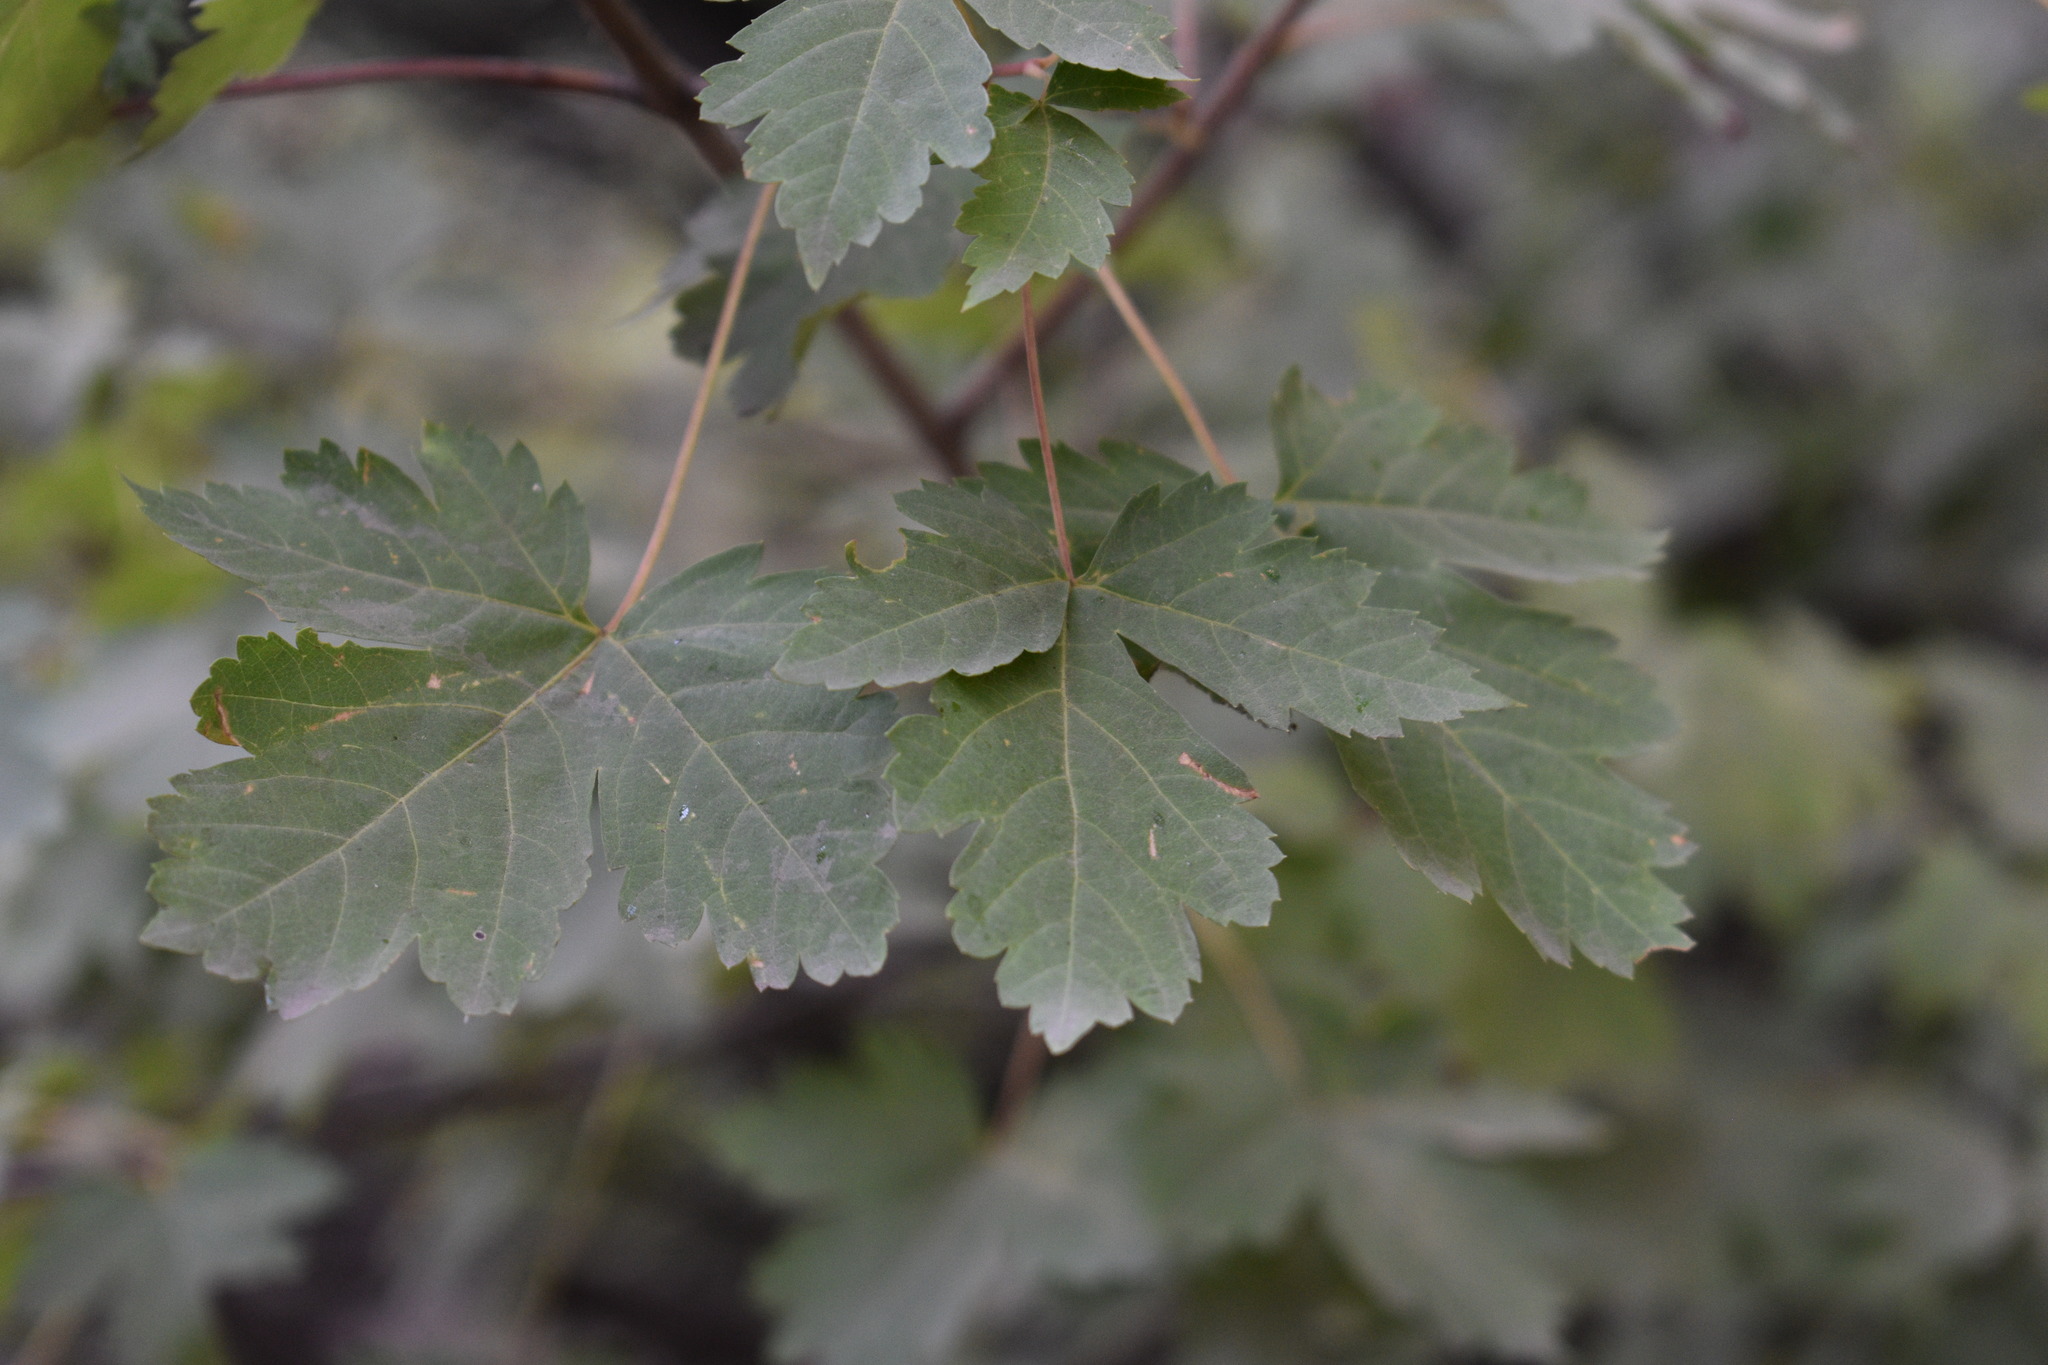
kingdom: Plantae
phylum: Tracheophyta
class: Magnoliopsida
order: Sapindales
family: Sapindaceae
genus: Acer
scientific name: Acer glabrum
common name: Rocky mountain maple
